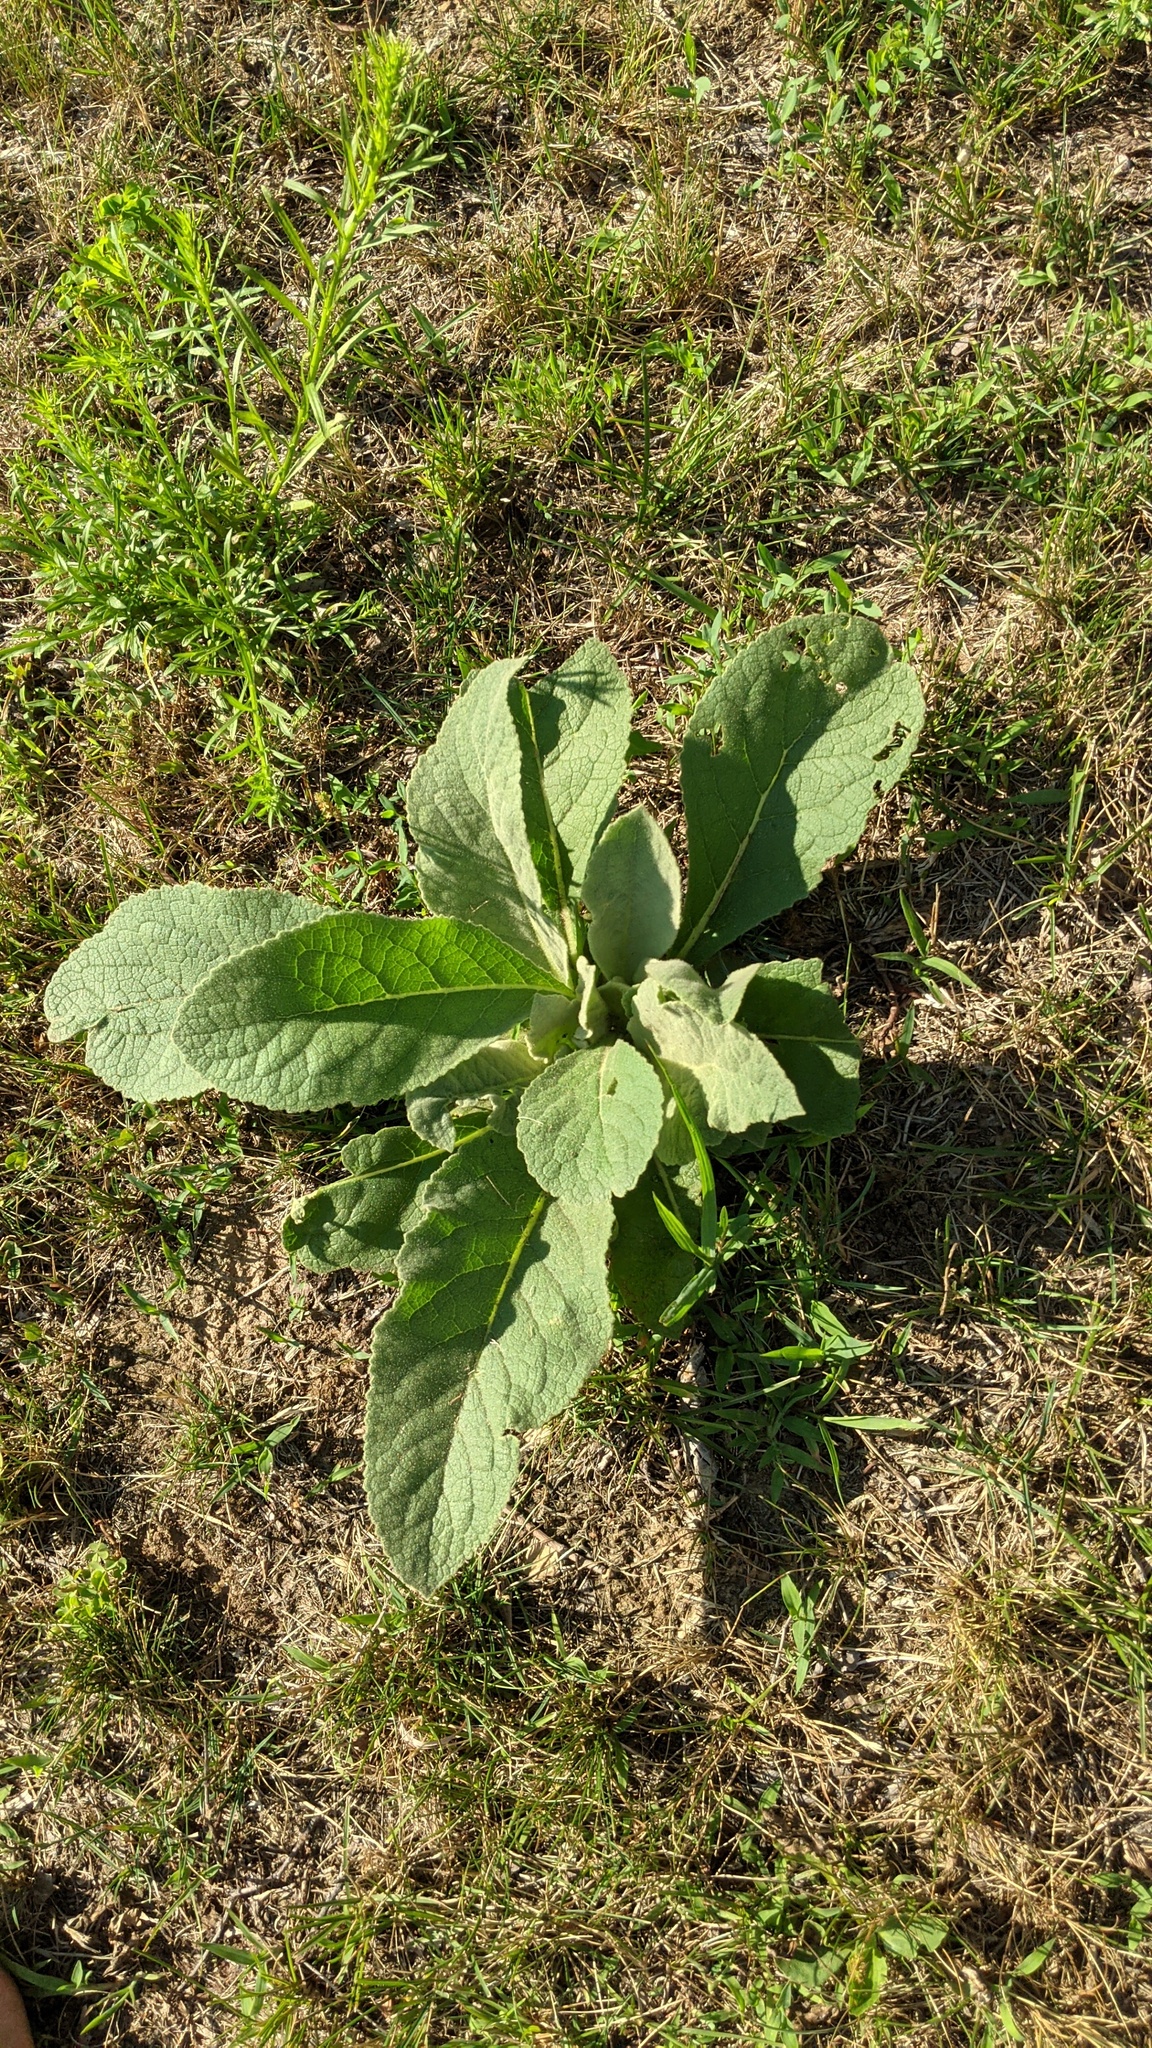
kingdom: Plantae
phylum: Tracheophyta
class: Magnoliopsida
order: Lamiales
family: Scrophulariaceae
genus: Verbascum
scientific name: Verbascum thapsus
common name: Common mullein
